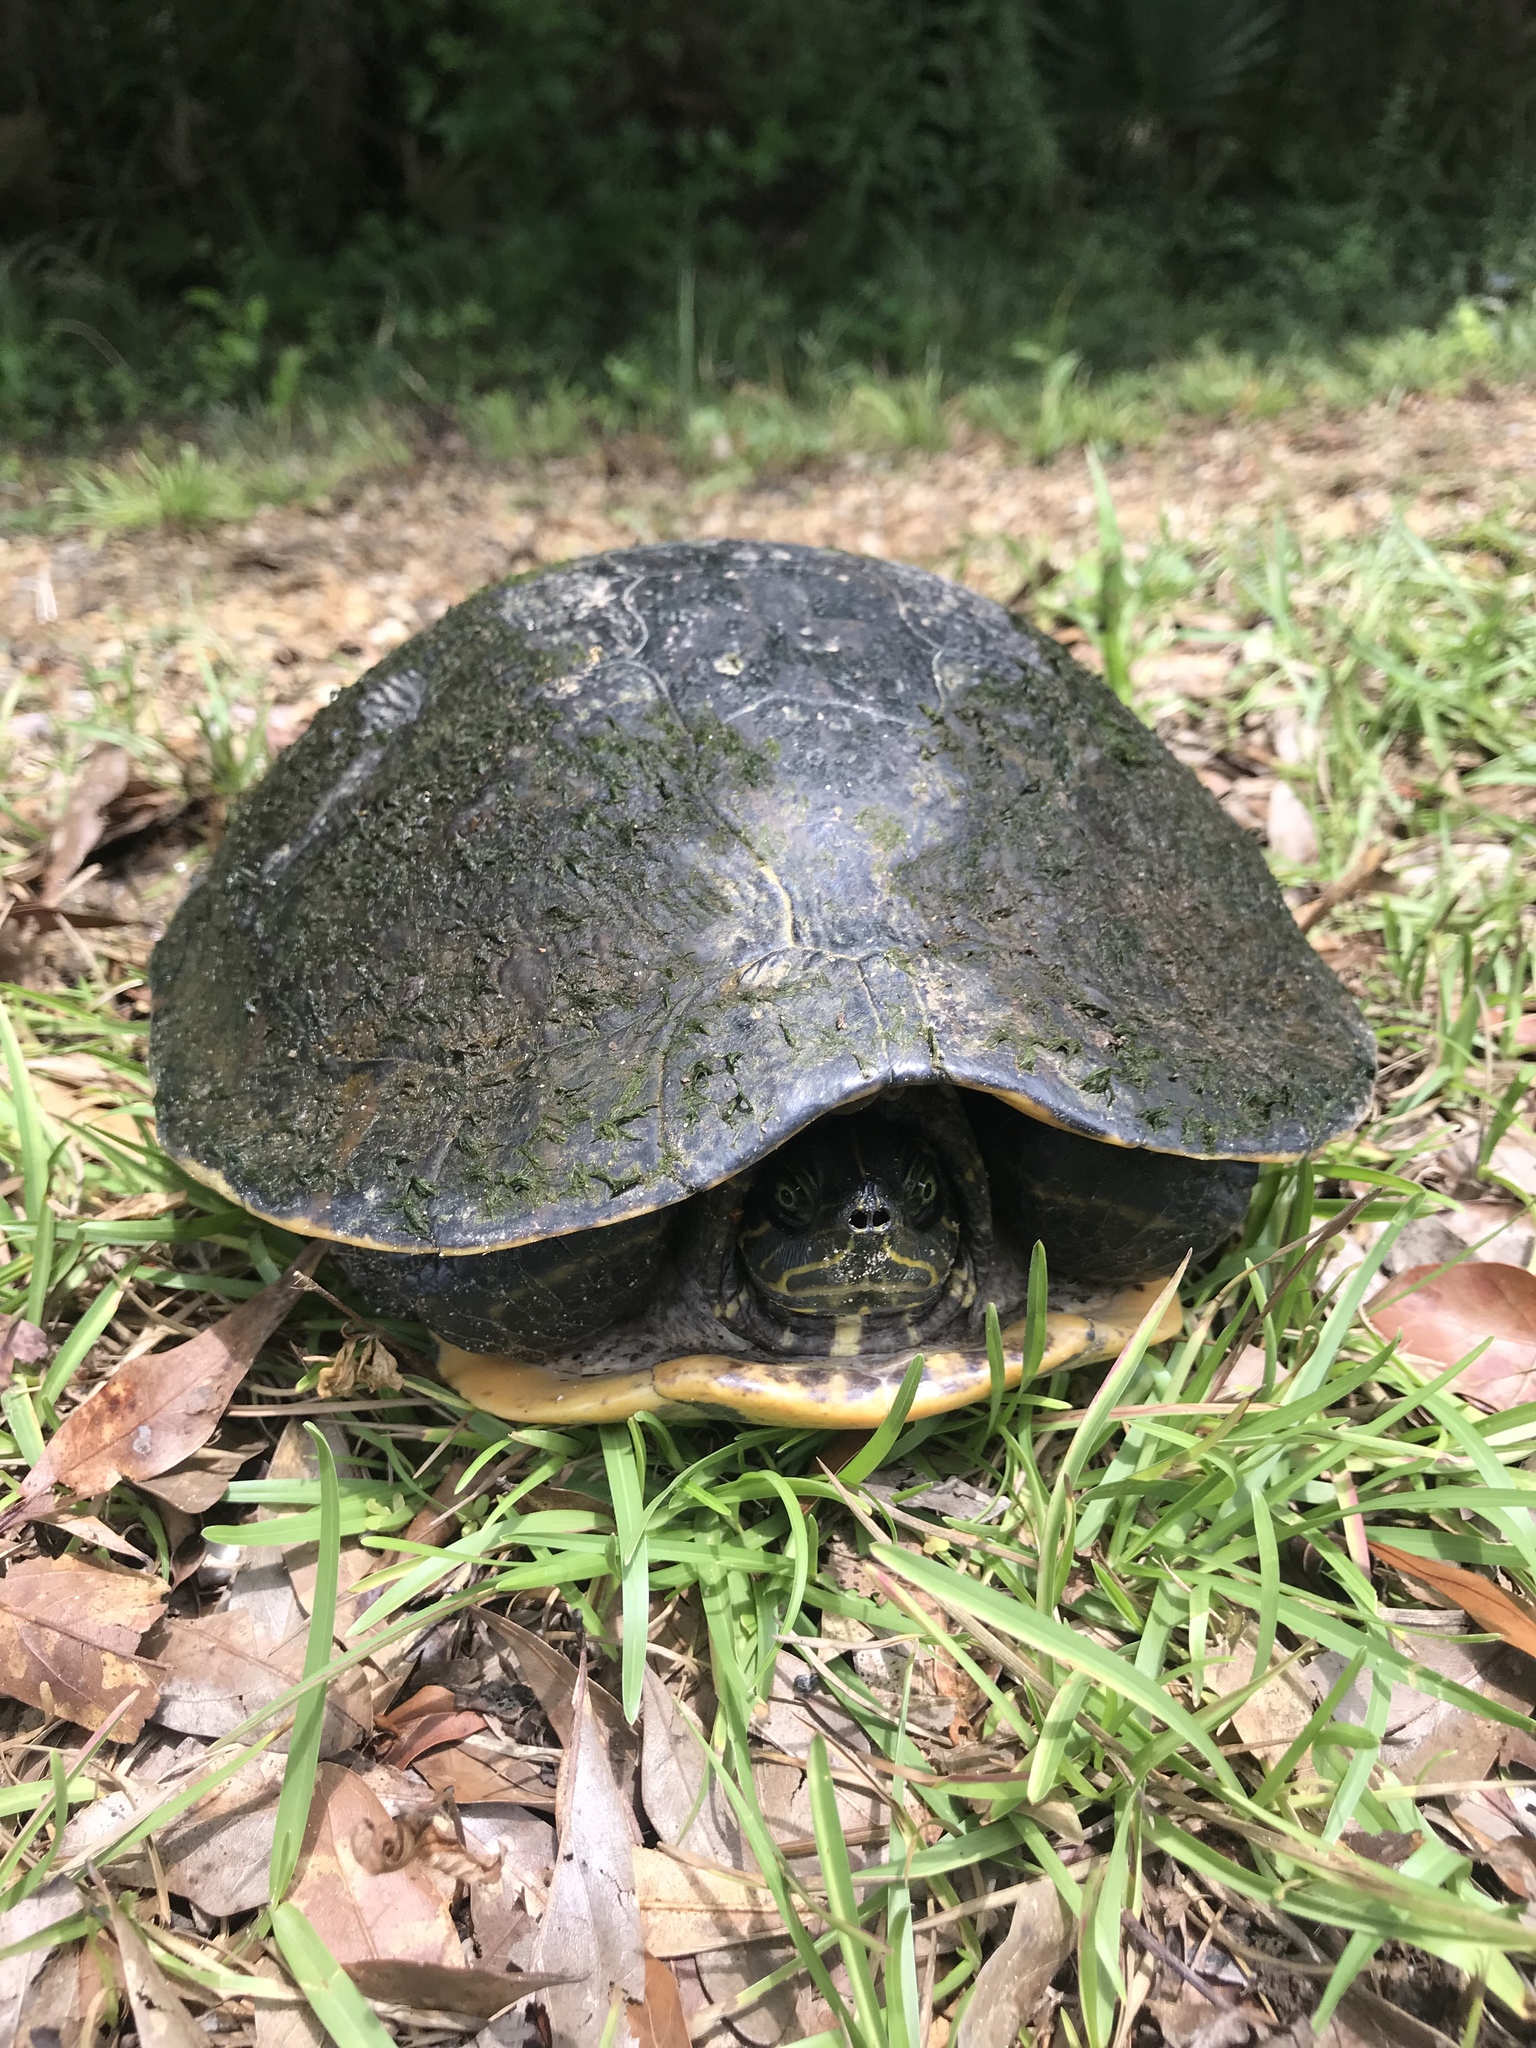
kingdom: Animalia
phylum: Chordata
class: Testudines
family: Emydidae
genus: Trachemys
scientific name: Trachemys scripta
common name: Slider
